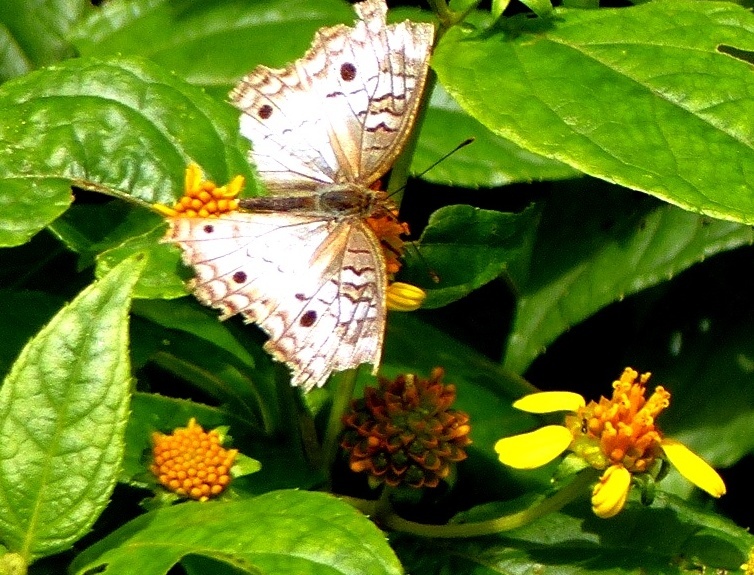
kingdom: Animalia
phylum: Arthropoda
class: Insecta
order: Lepidoptera
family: Nymphalidae
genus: Anartia
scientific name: Anartia jatrophae
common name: White peacock
